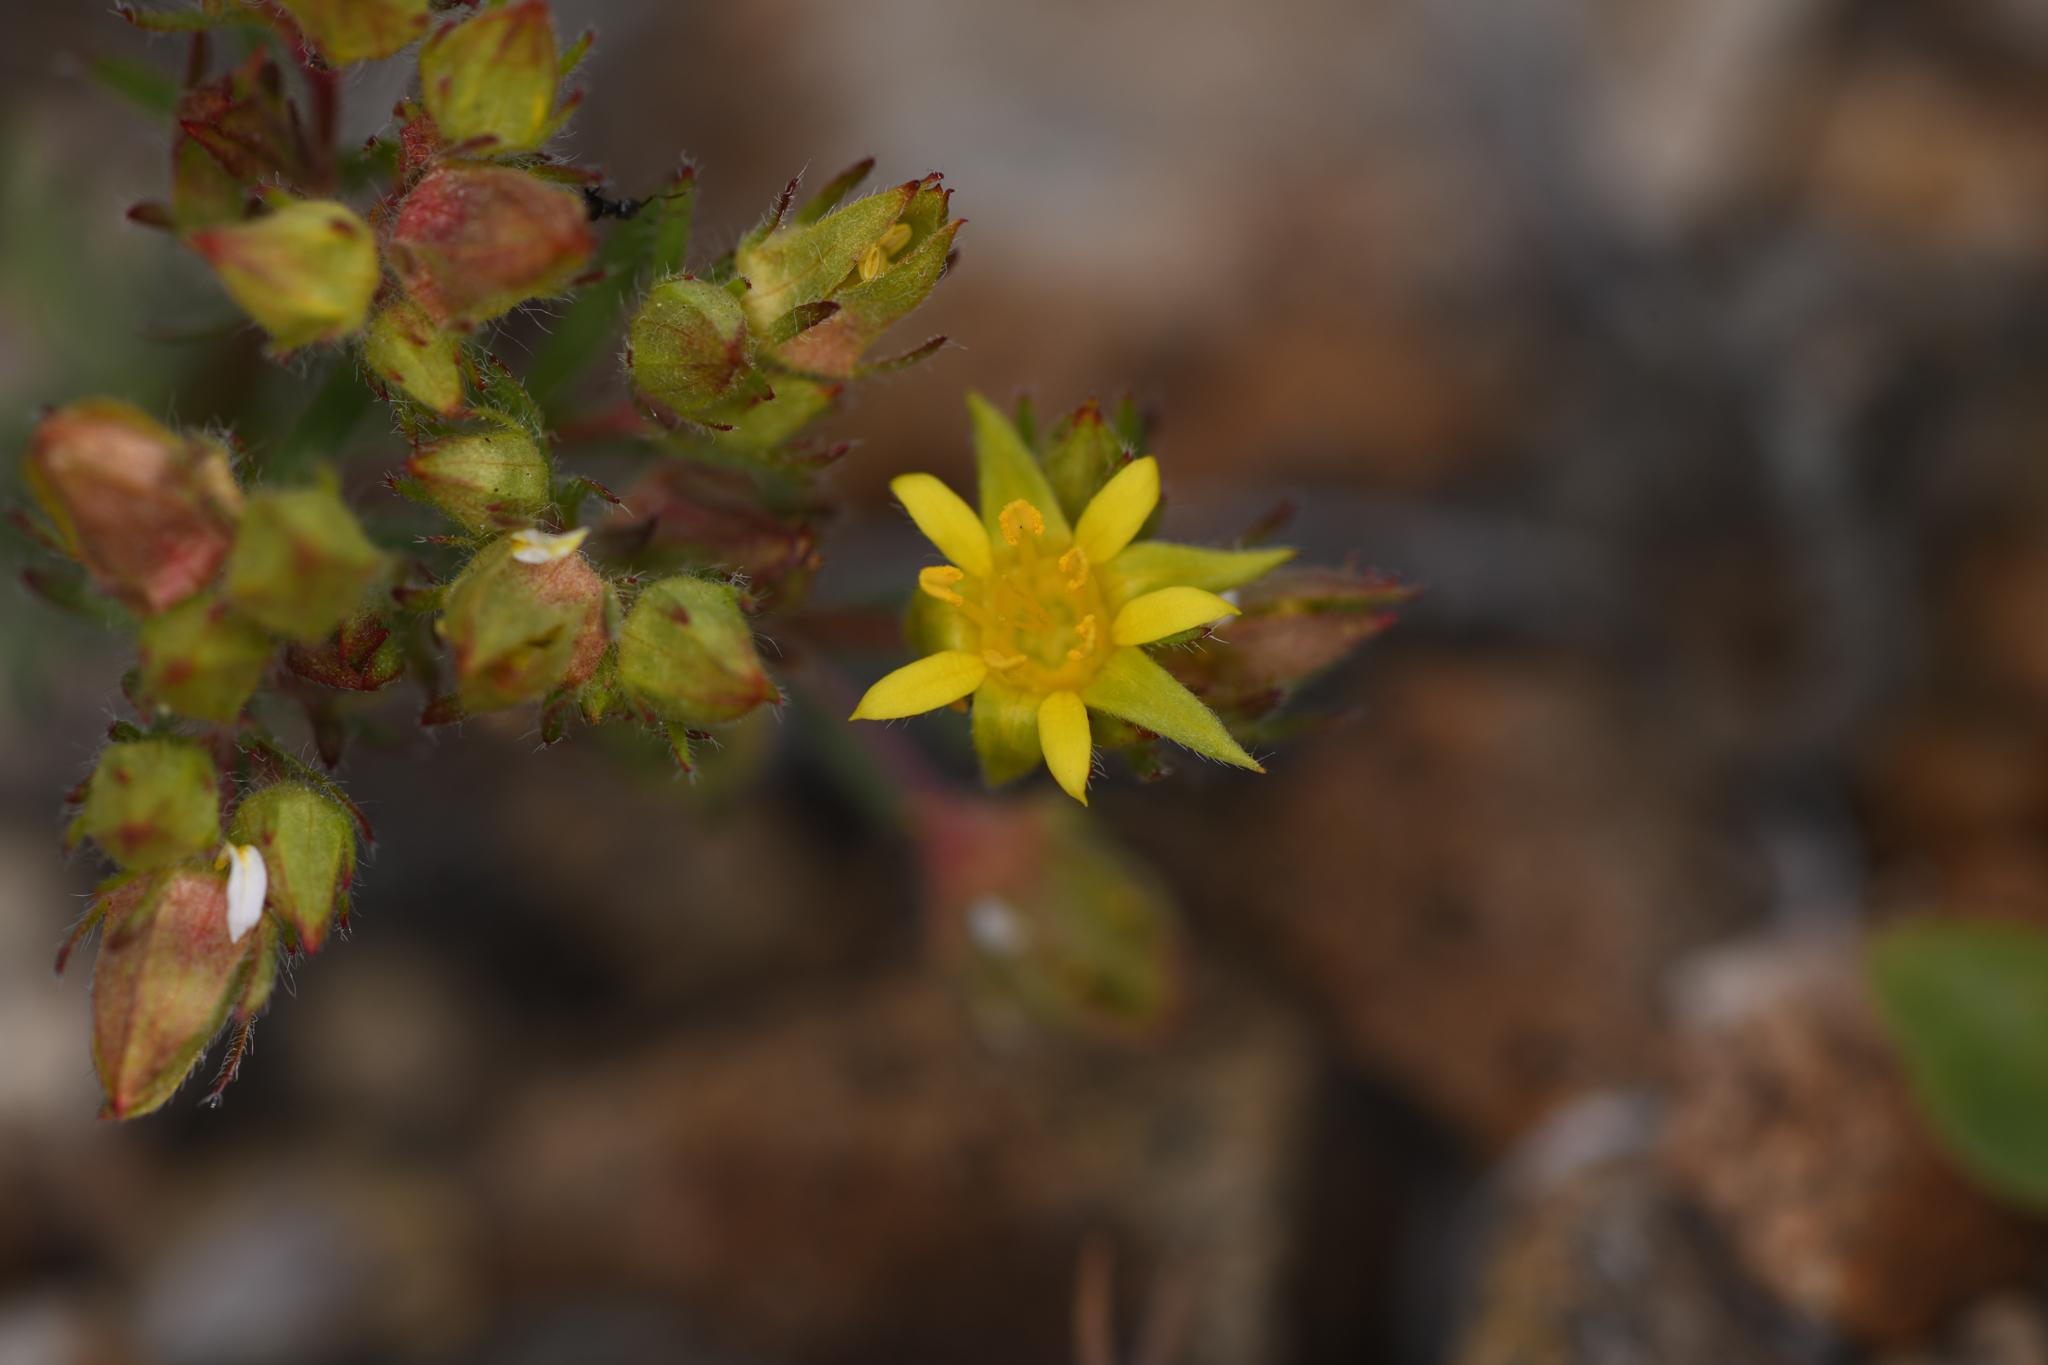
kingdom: Plantae
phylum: Tracheophyta
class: Magnoliopsida
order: Rosales
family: Rosaceae
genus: Potentilla
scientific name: Potentilla webberi
